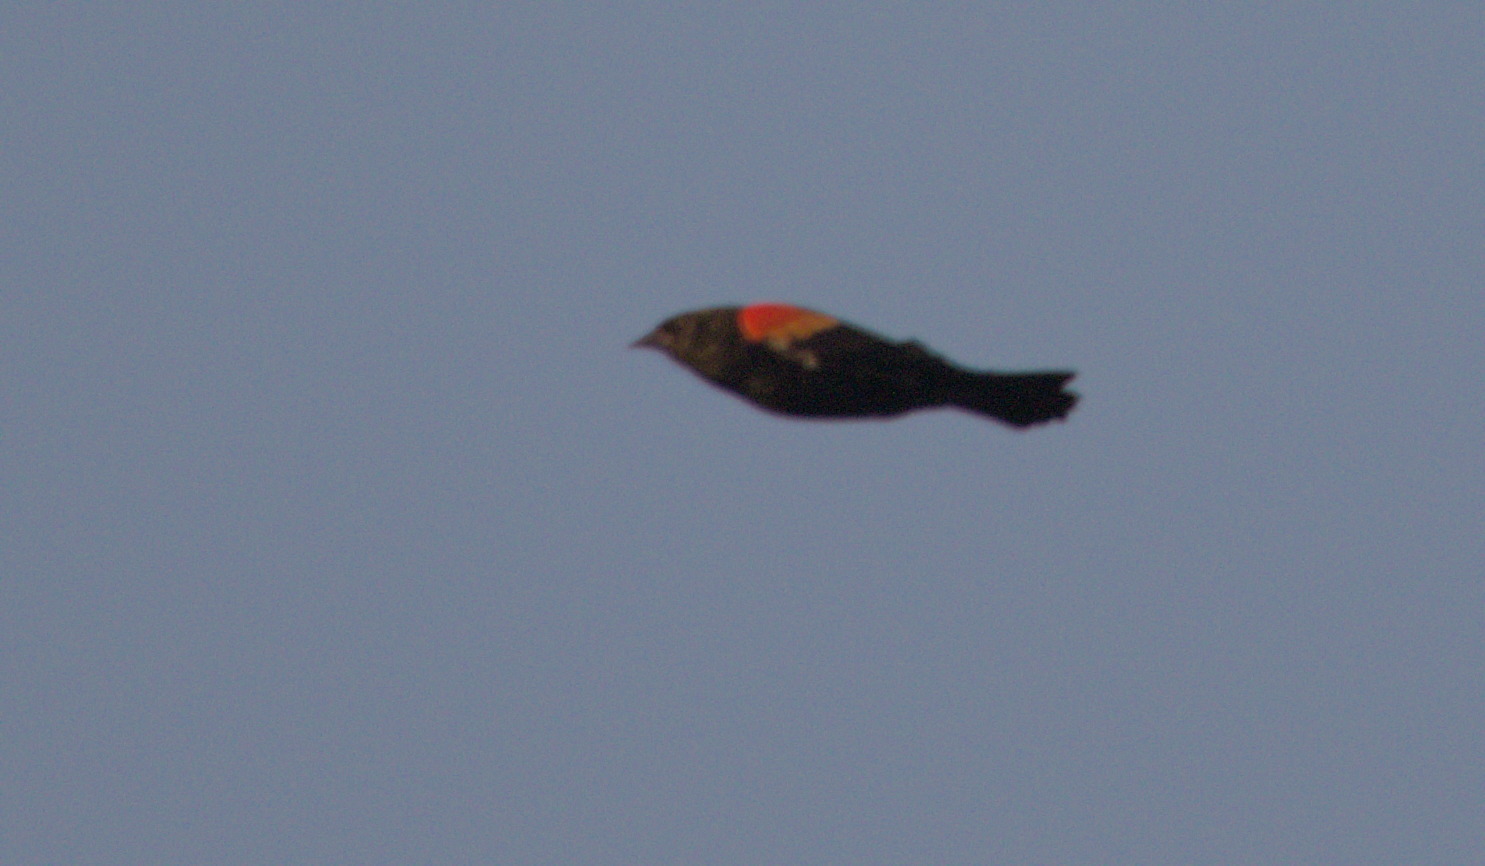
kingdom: Animalia
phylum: Chordata
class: Aves
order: Passeriformes
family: Icteridae
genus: Agelaius
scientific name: Agelaius phoeniceus
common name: Red-winged blackbird
